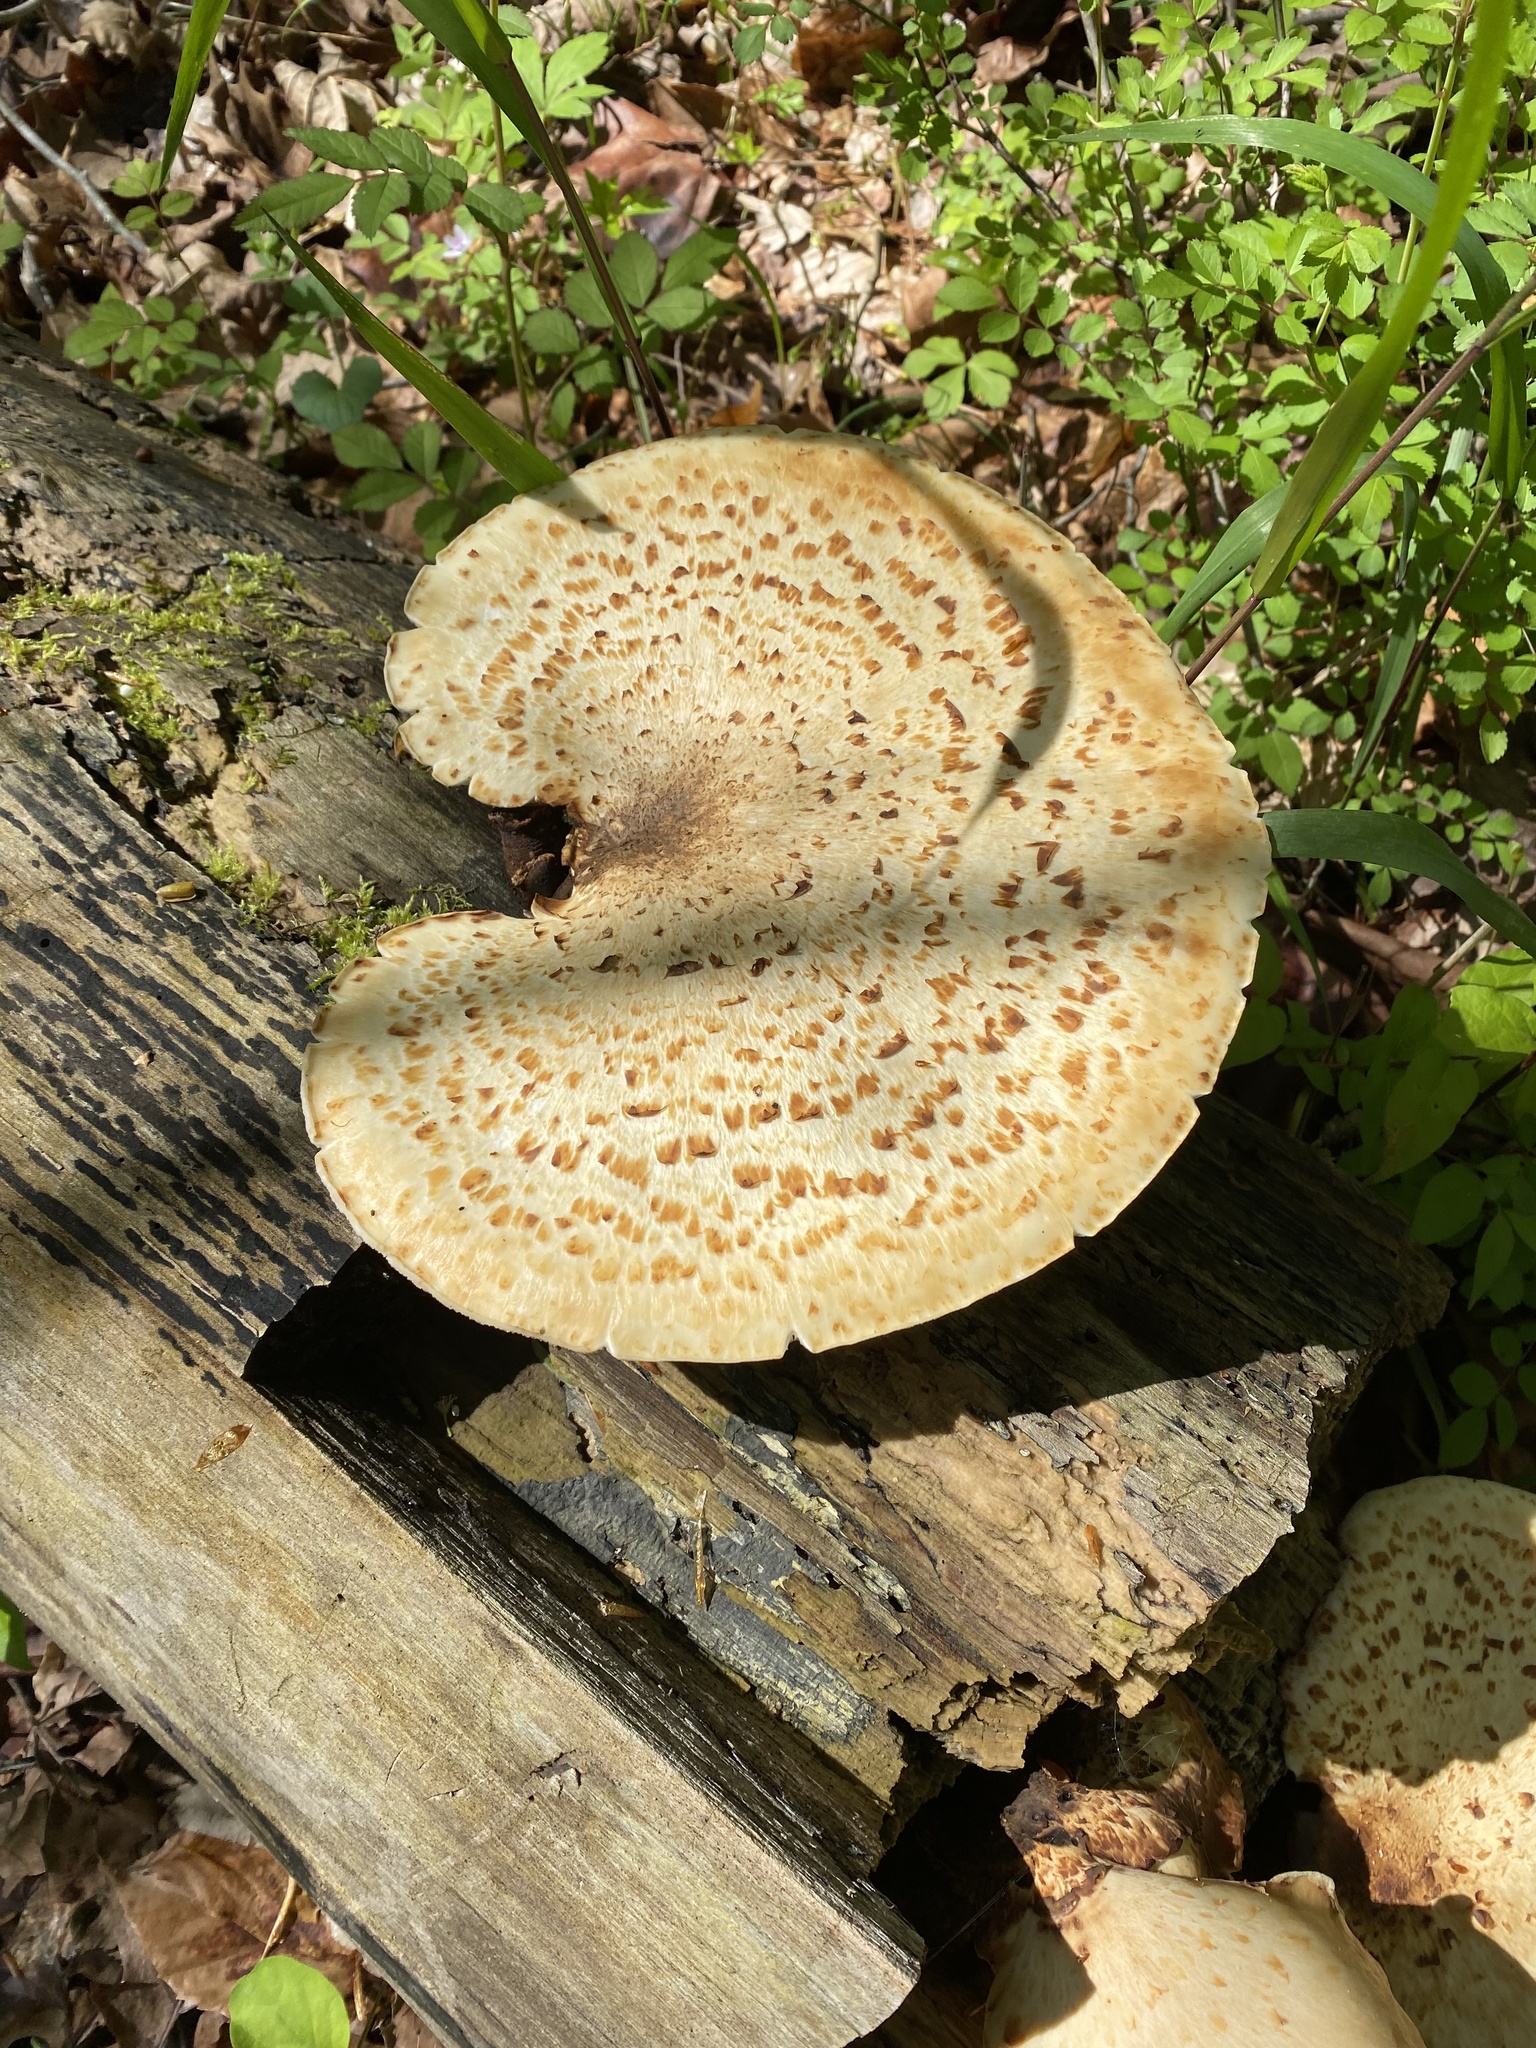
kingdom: Fungi
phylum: Basidiomycota
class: Agaricomycetes
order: Polyporales
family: Polyporaceae
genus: Cerioporus
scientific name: Cerioporus squamosus
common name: Dryad's saddle
